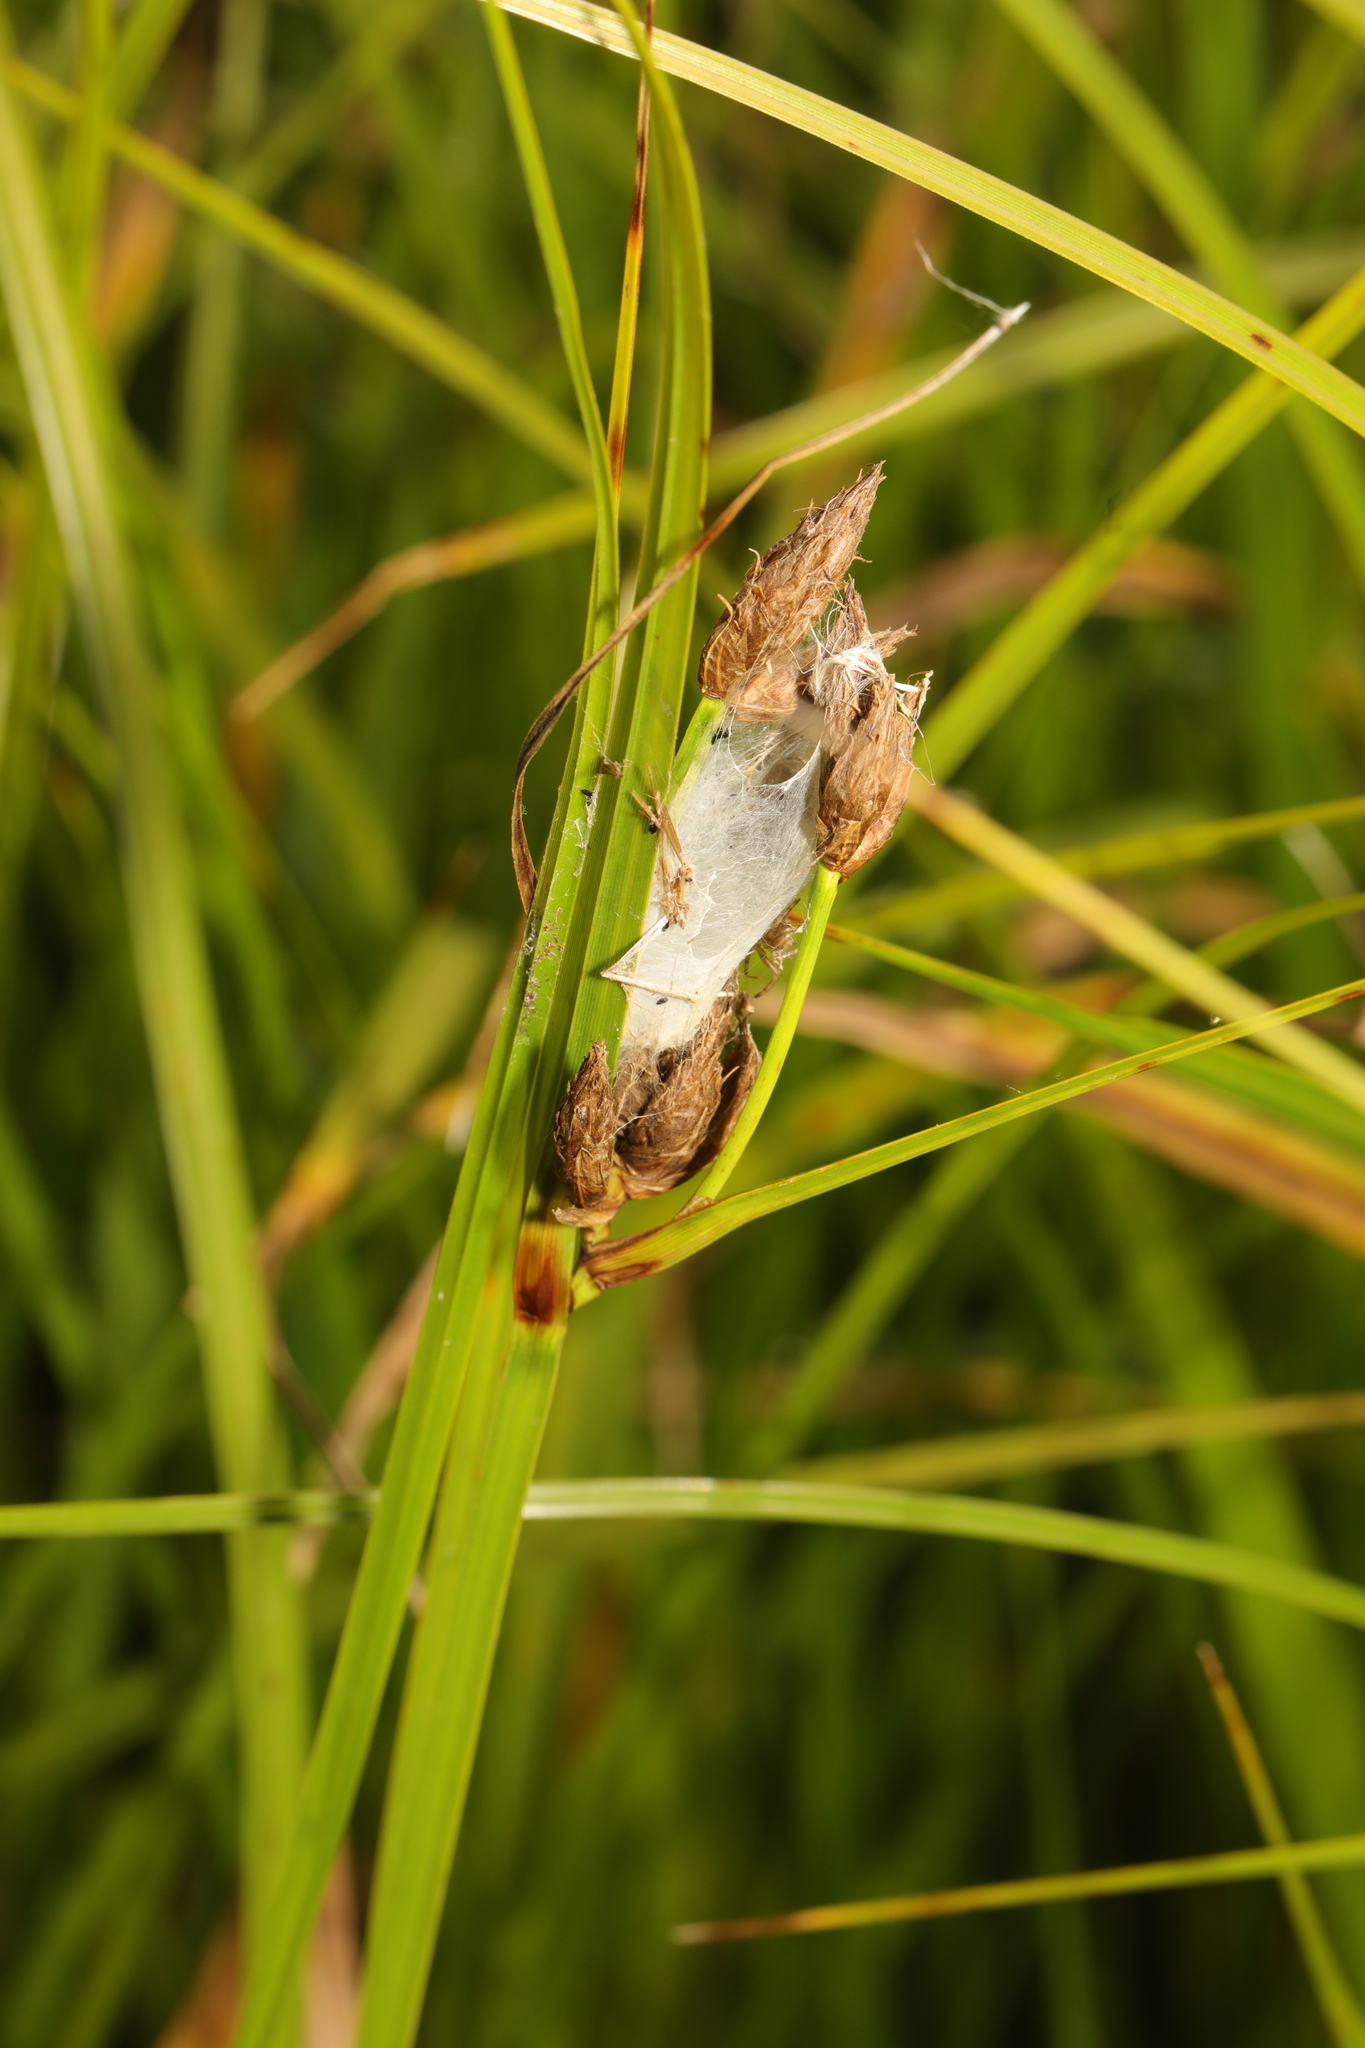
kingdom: Plantae
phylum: Tracheophyta
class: Liliopsida
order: Poales
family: Cyperaceae
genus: Bolboschoenus
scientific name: Bolboschoenus maritimus
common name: Sea club-rush
